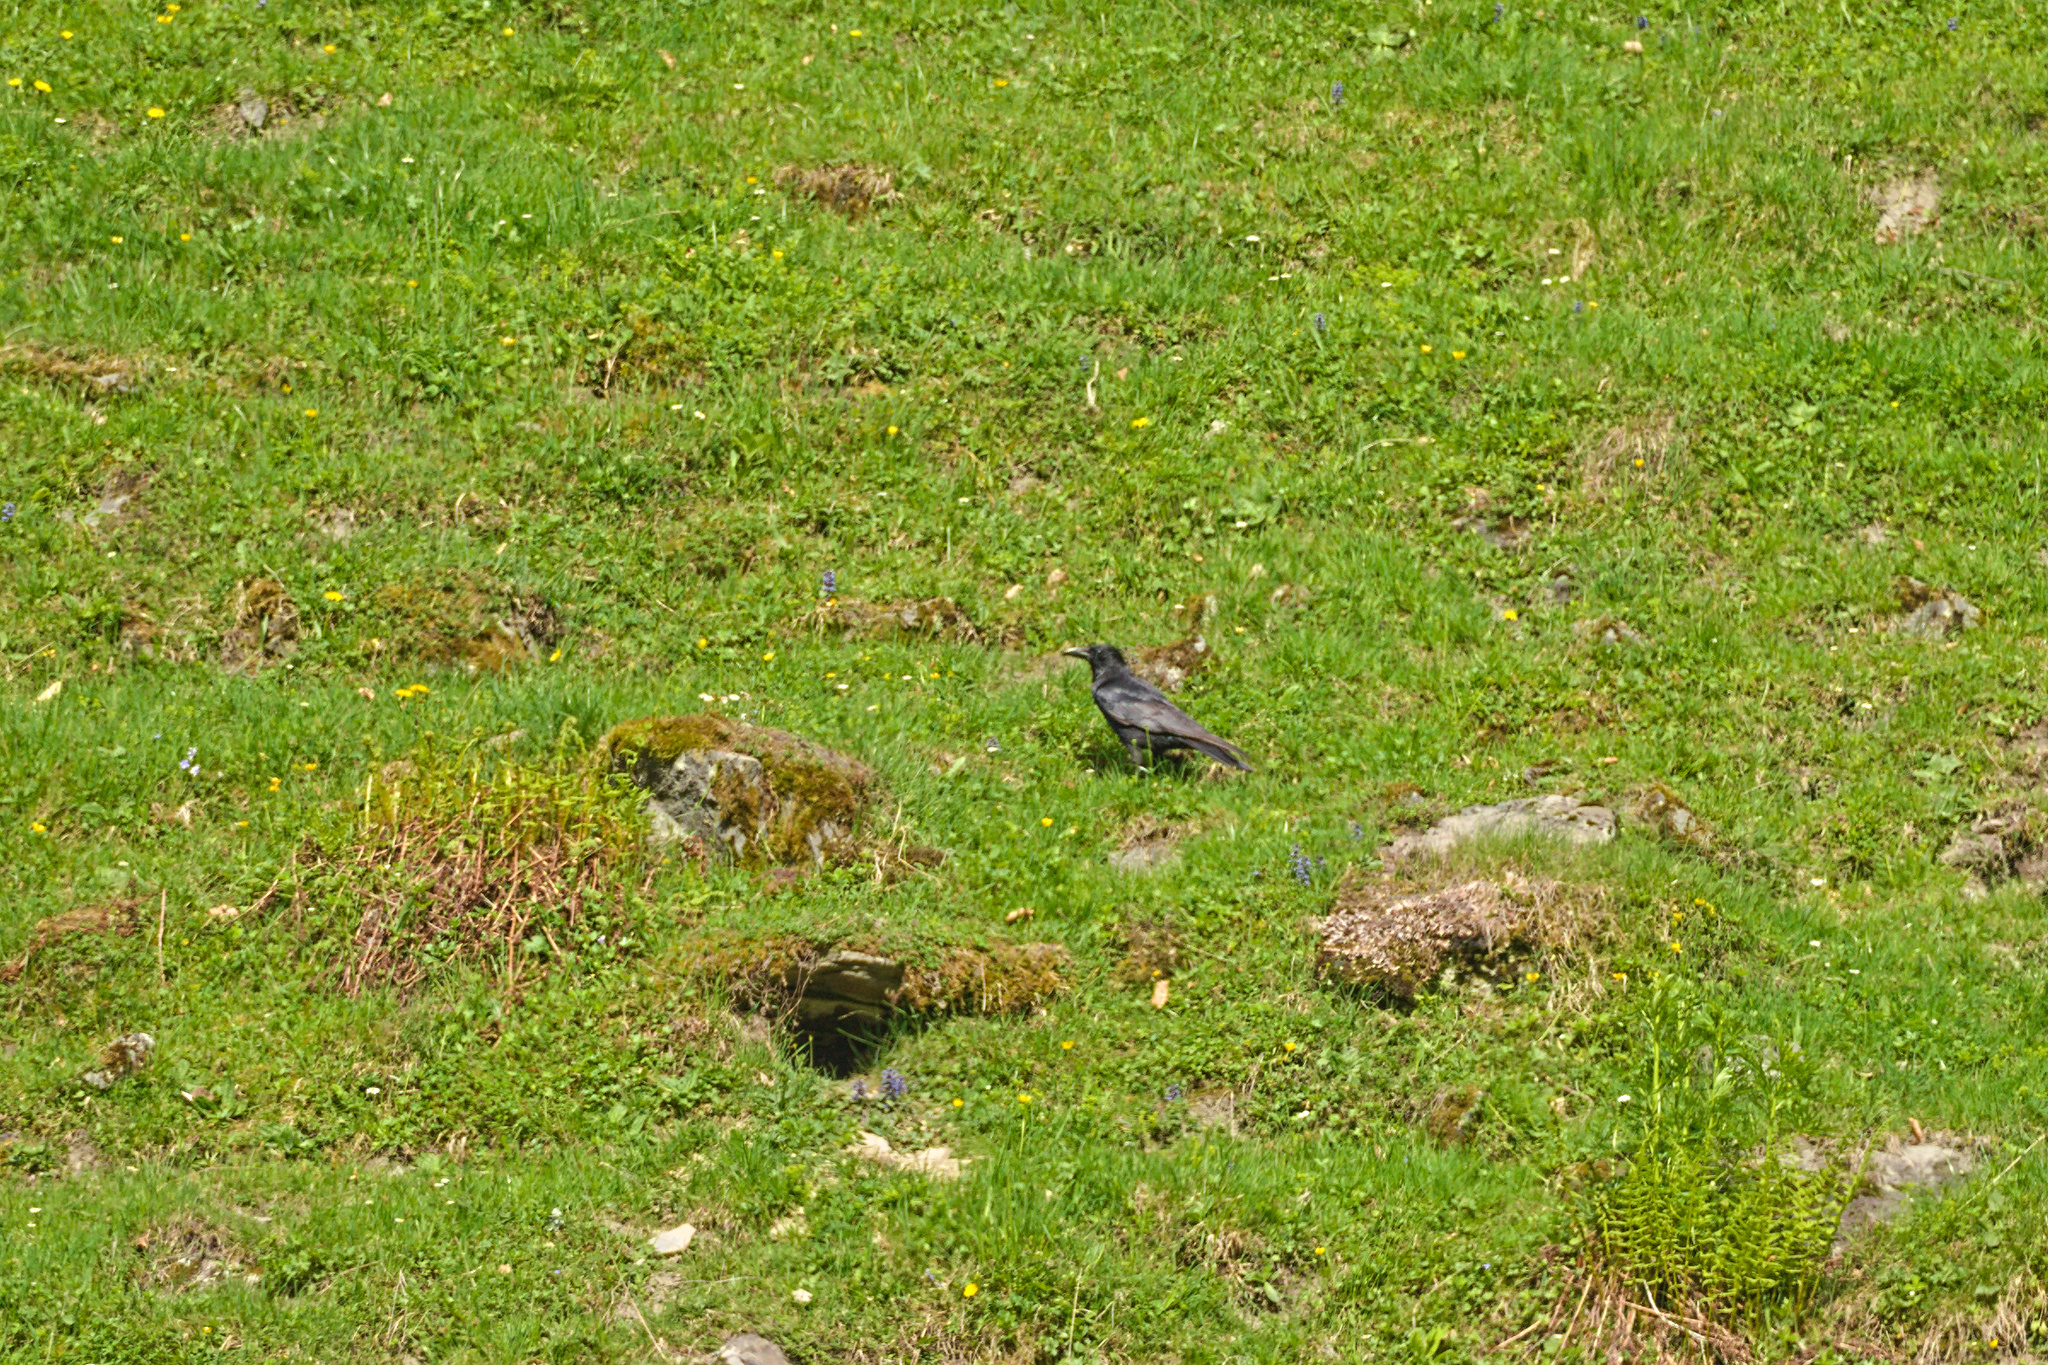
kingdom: Animalia
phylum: Chordata
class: Aves
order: Passeriformes
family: Corvidae
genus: Corvus
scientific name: Corvus corax
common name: Common raven
